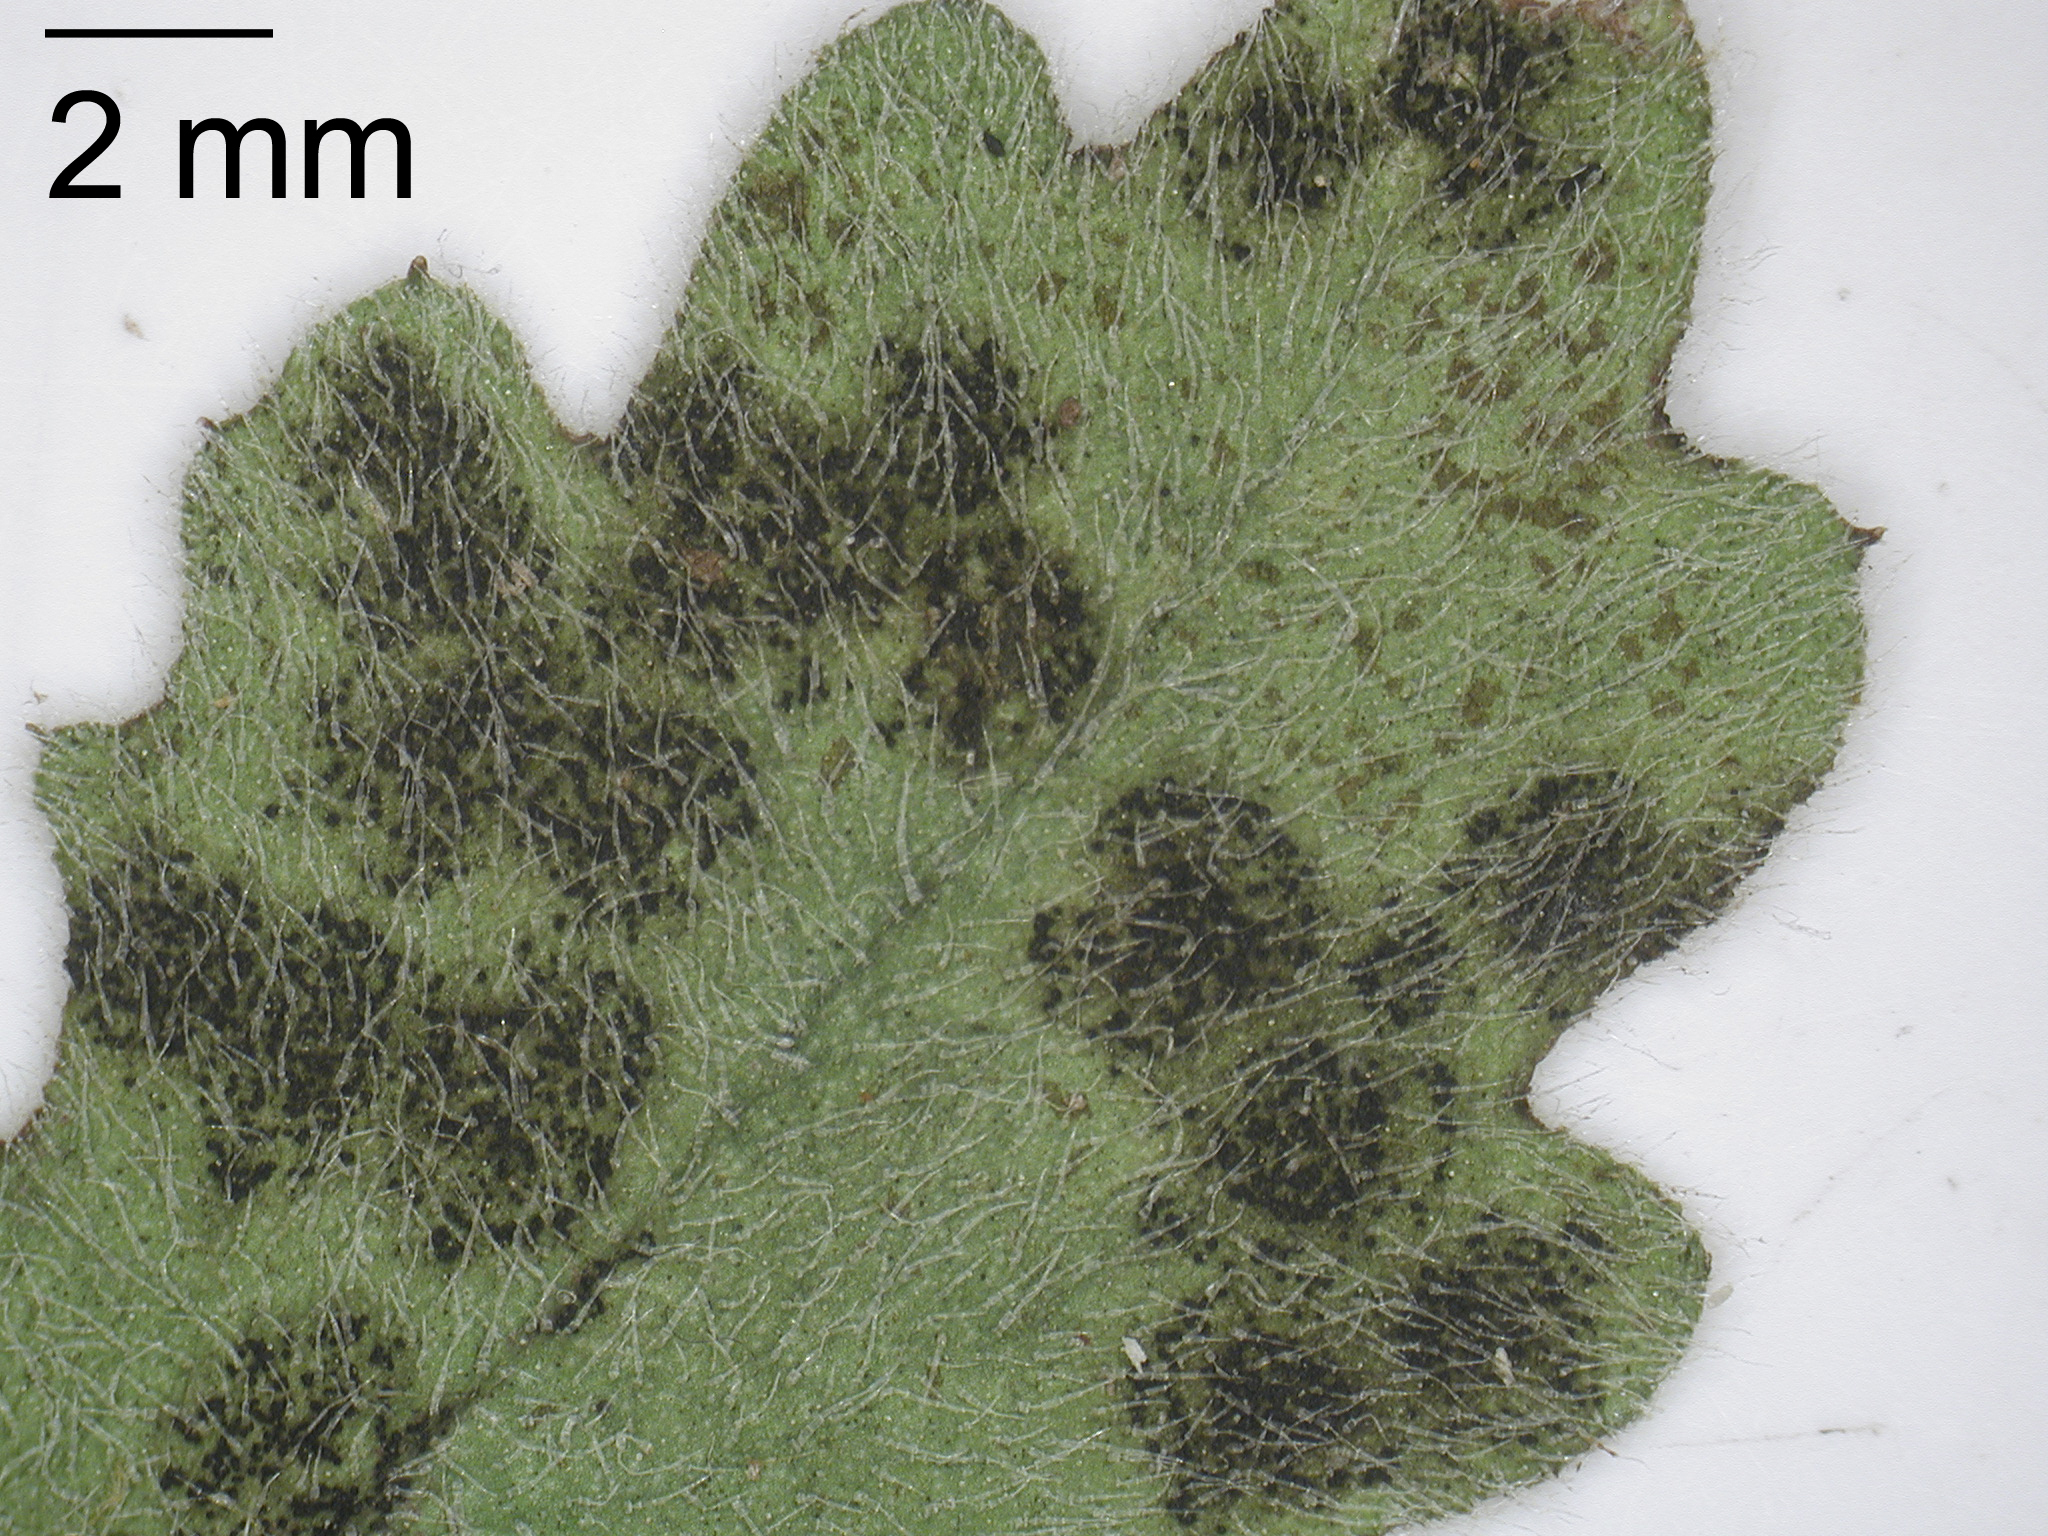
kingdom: Fungi
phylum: Ascomycota
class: Dothideomycetes
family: Pseudoperisporiaceae
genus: Wentiomyces
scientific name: Wentiomyces melioloides
